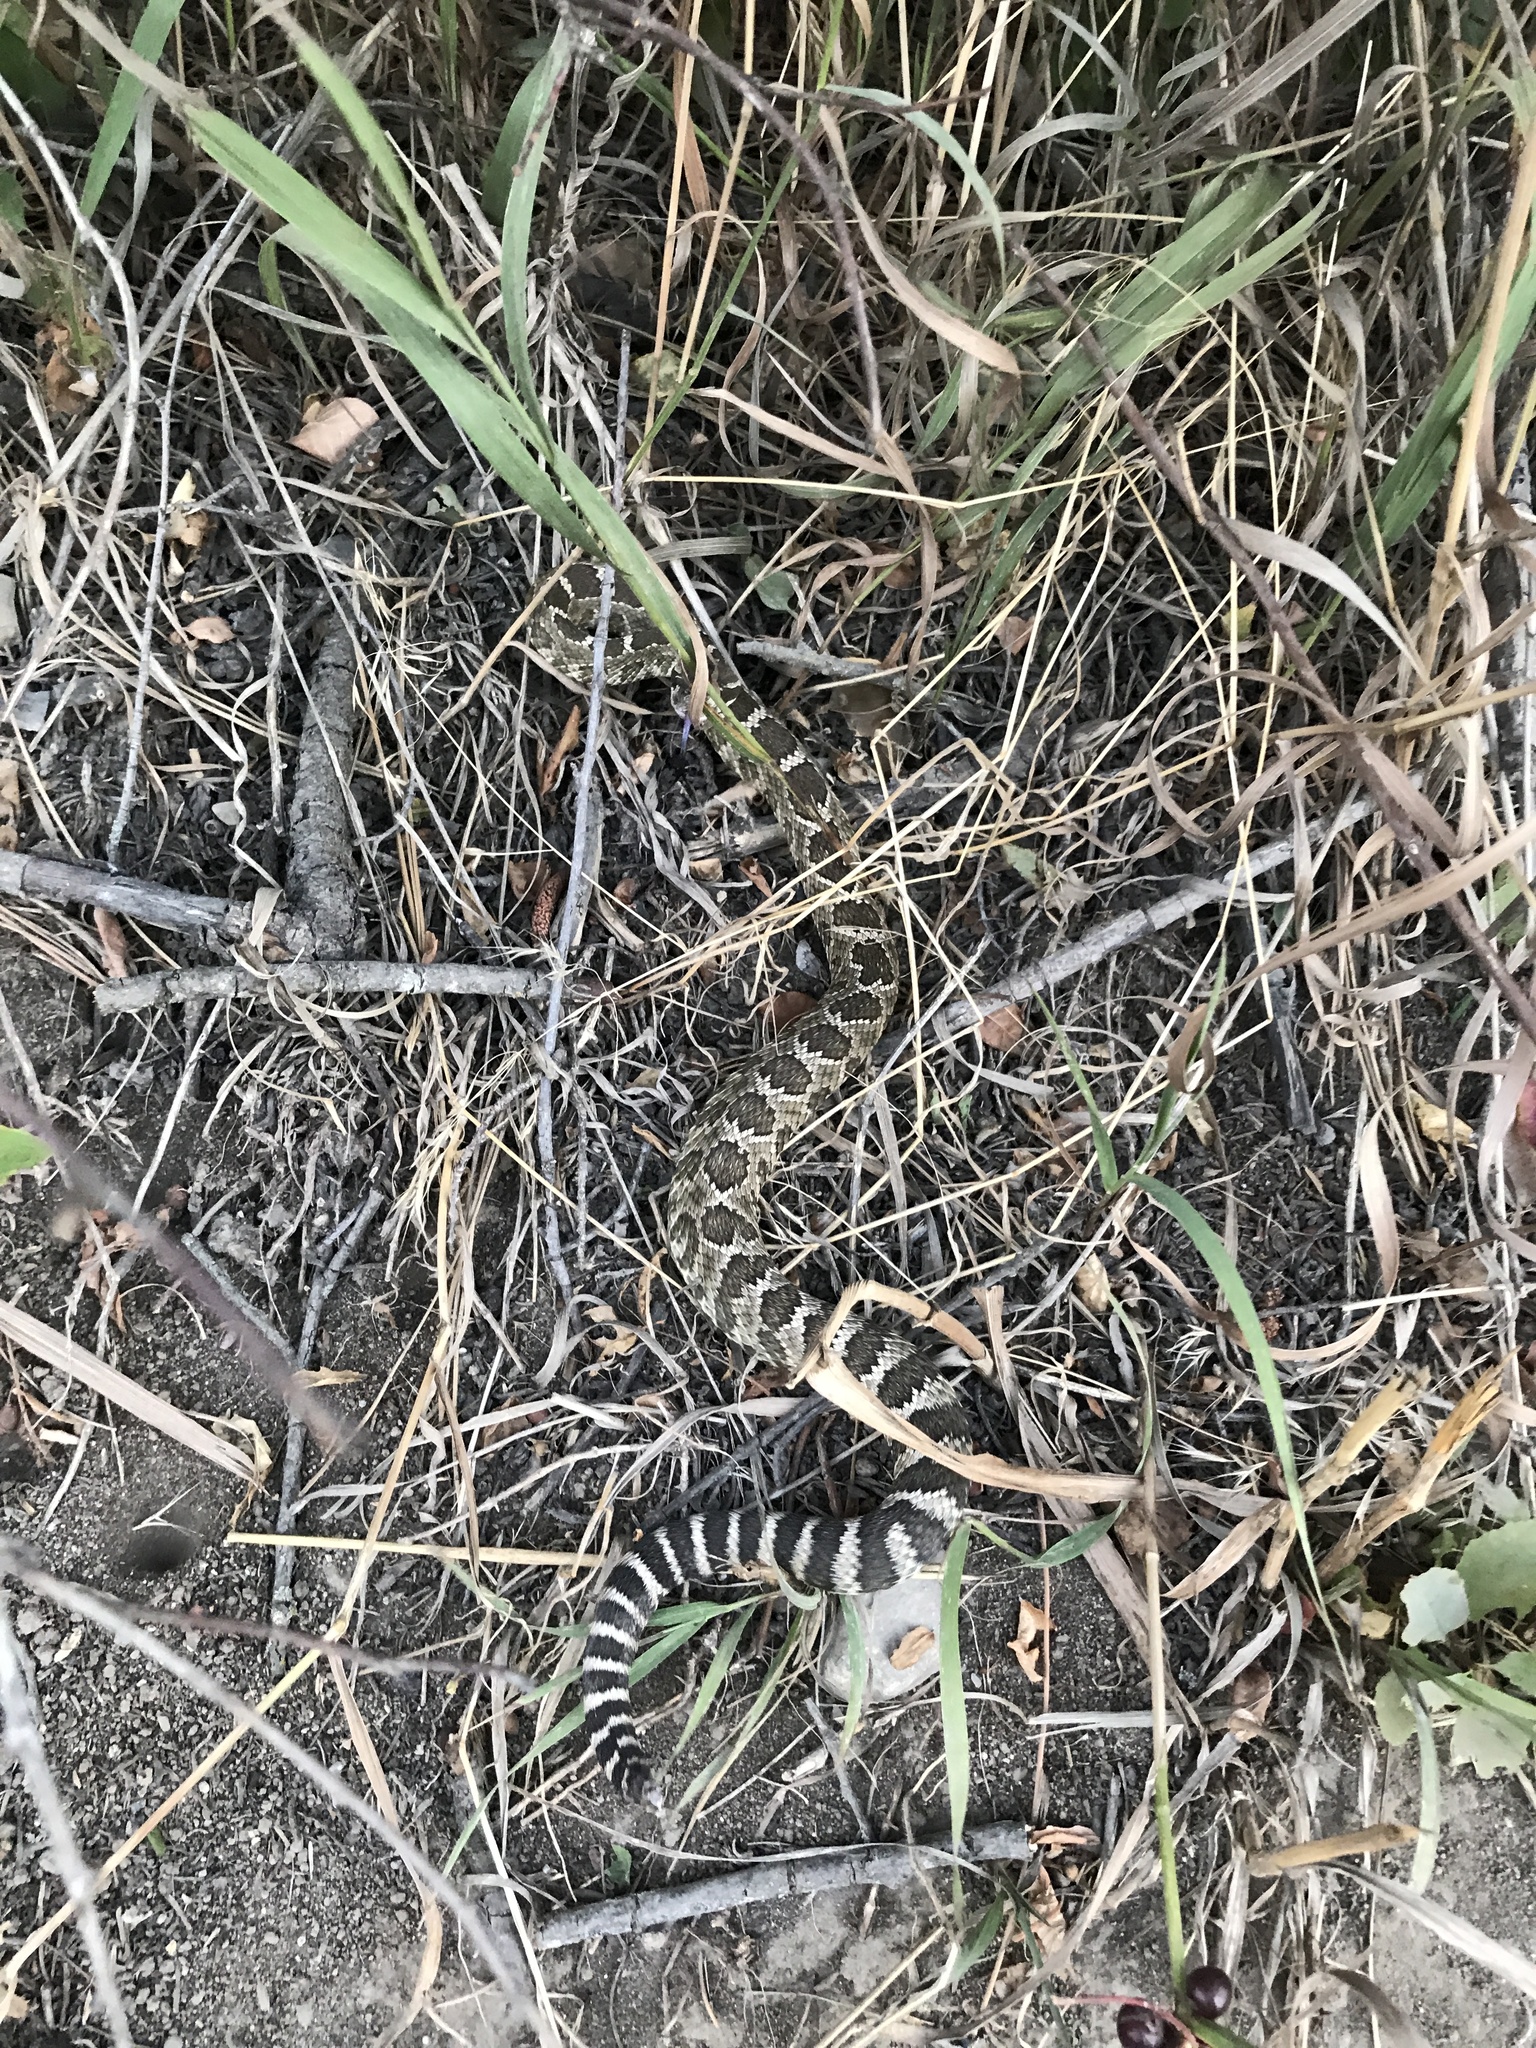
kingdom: Animalia
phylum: Chordata
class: Squamata
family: Viperidae
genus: Crotalus
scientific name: Crotalus oreganus
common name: Abyssus
